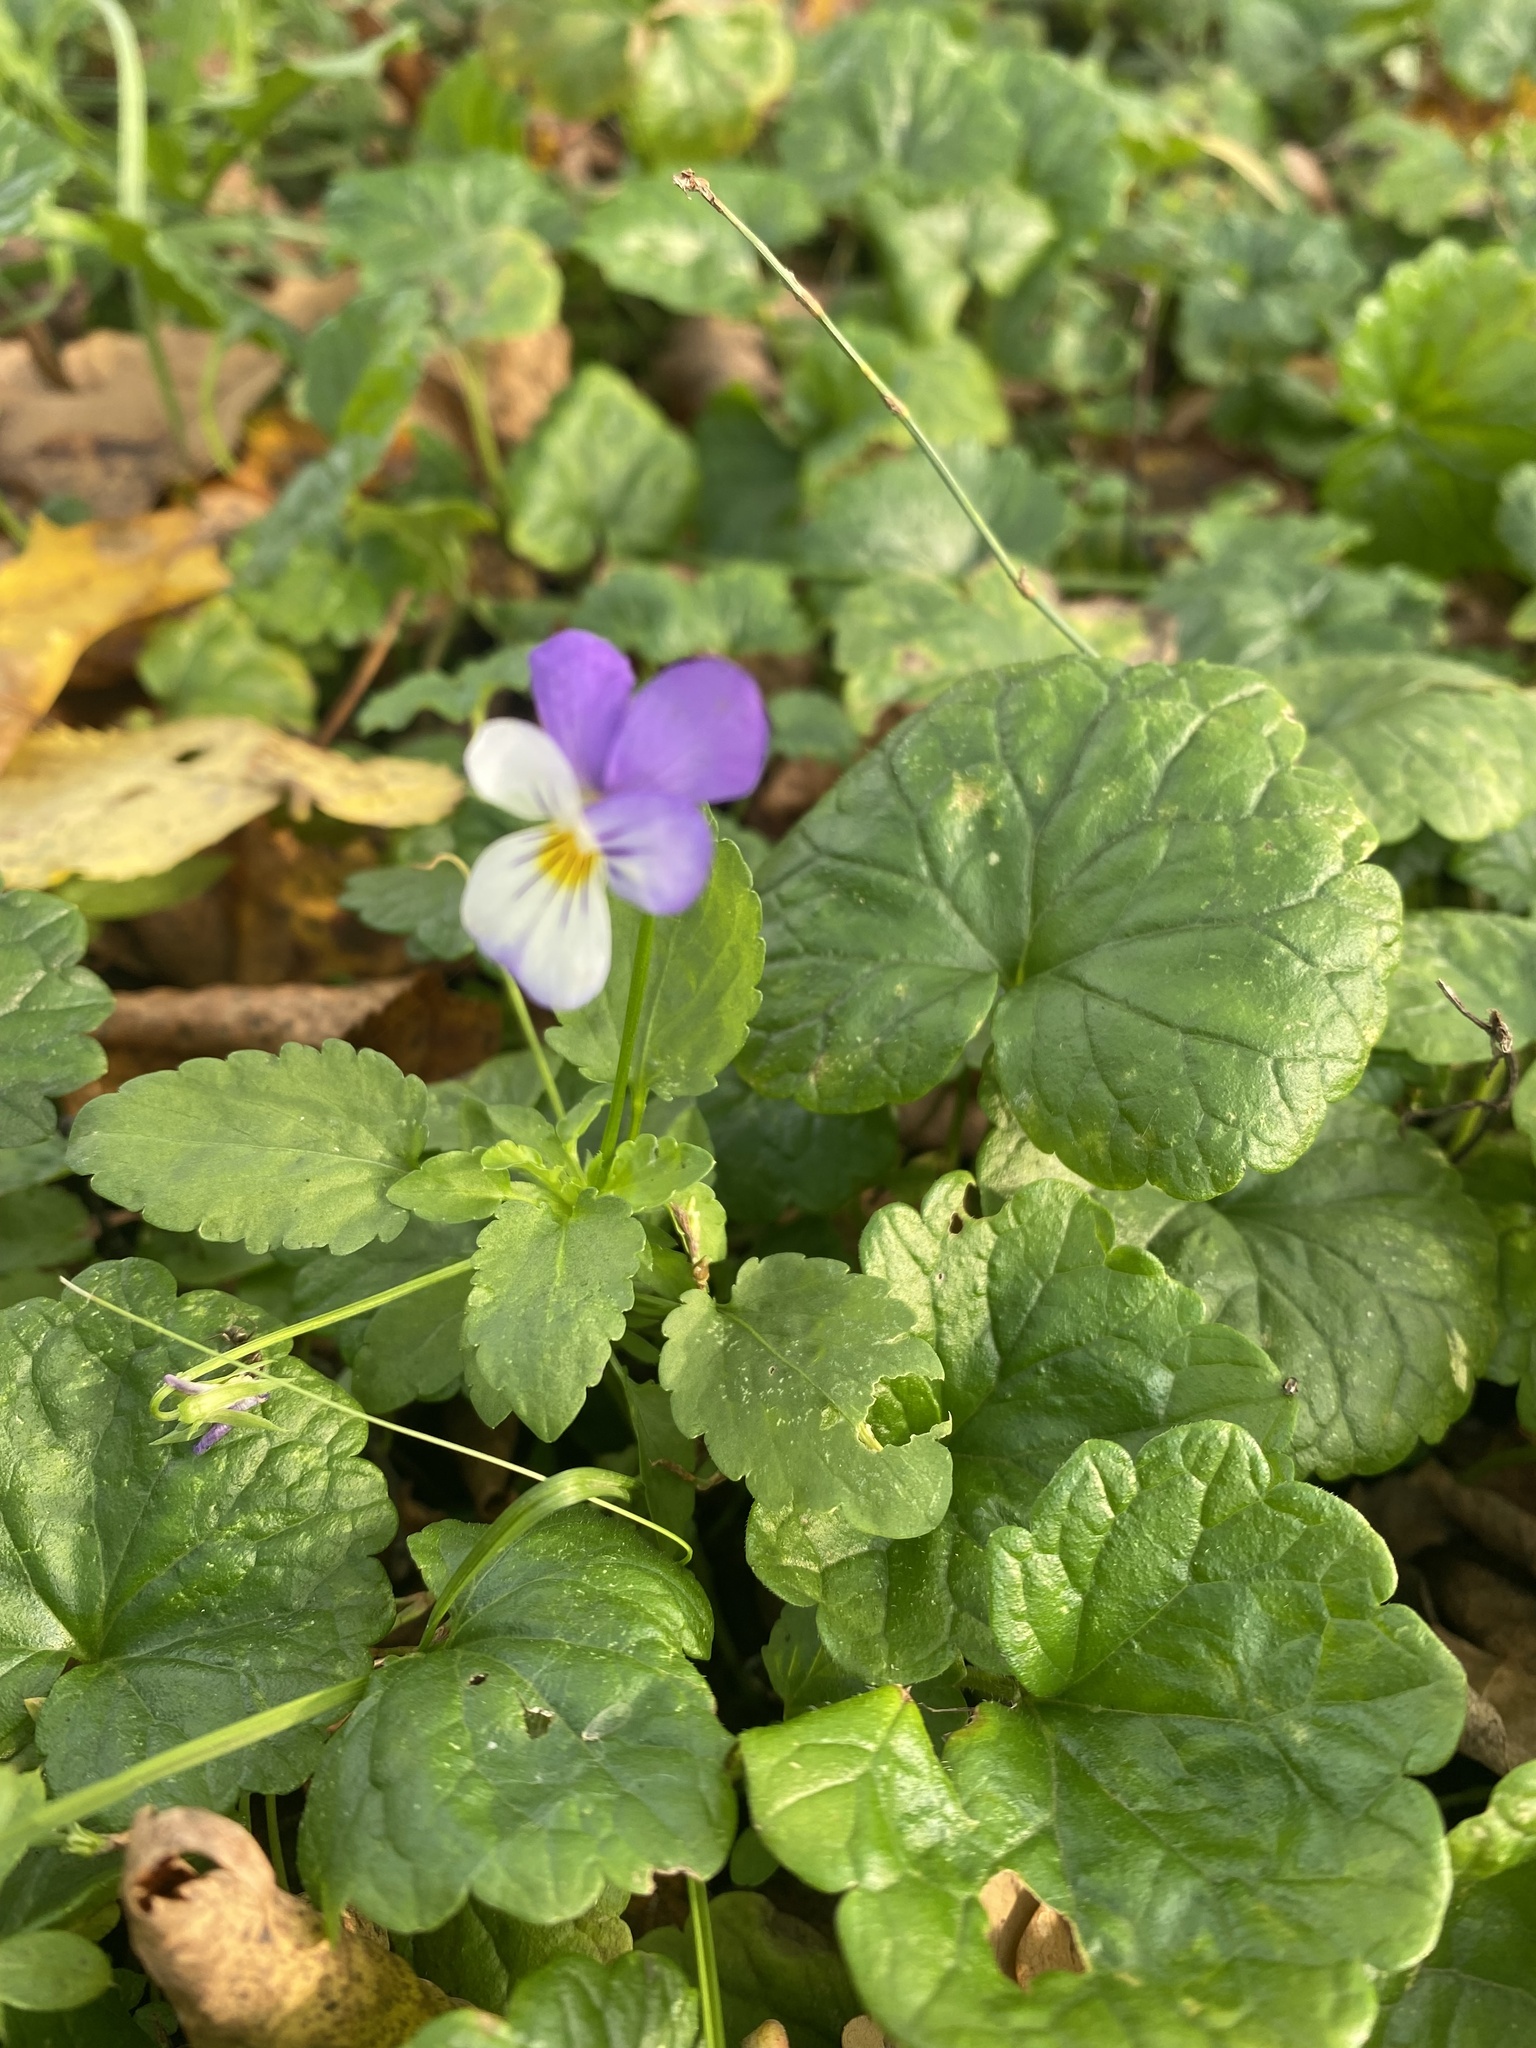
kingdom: Plantae
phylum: Tracheophyta
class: Magnoliopsida
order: Malpighiales
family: Violaceae
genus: Viola
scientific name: Viola tricolor
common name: Pansy
